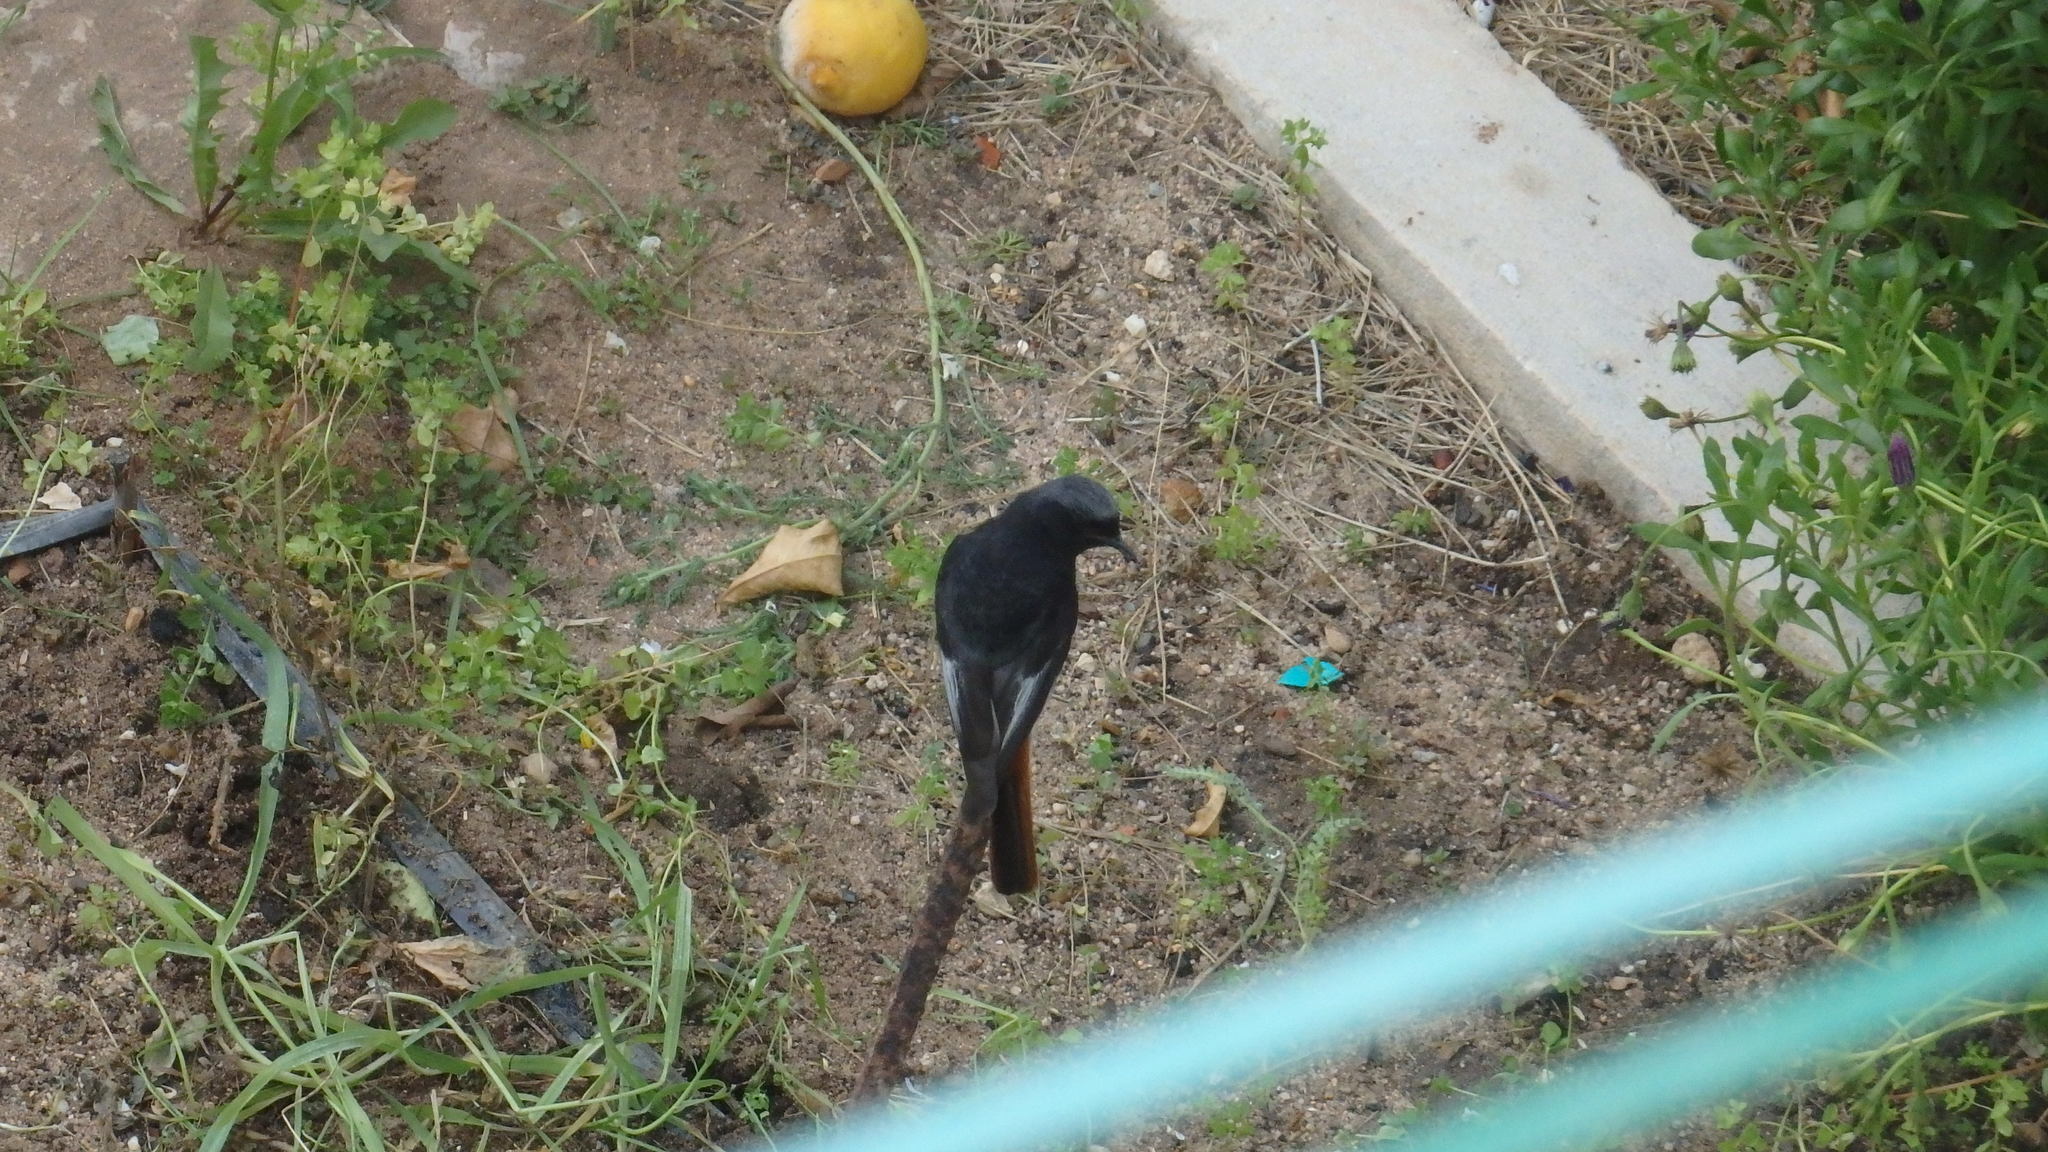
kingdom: Animalia
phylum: Chordata
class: Aves
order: Passeriformes
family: Muscicapidae
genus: Phoenicurus
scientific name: Phoenicurus ochruros
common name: Black redstart
